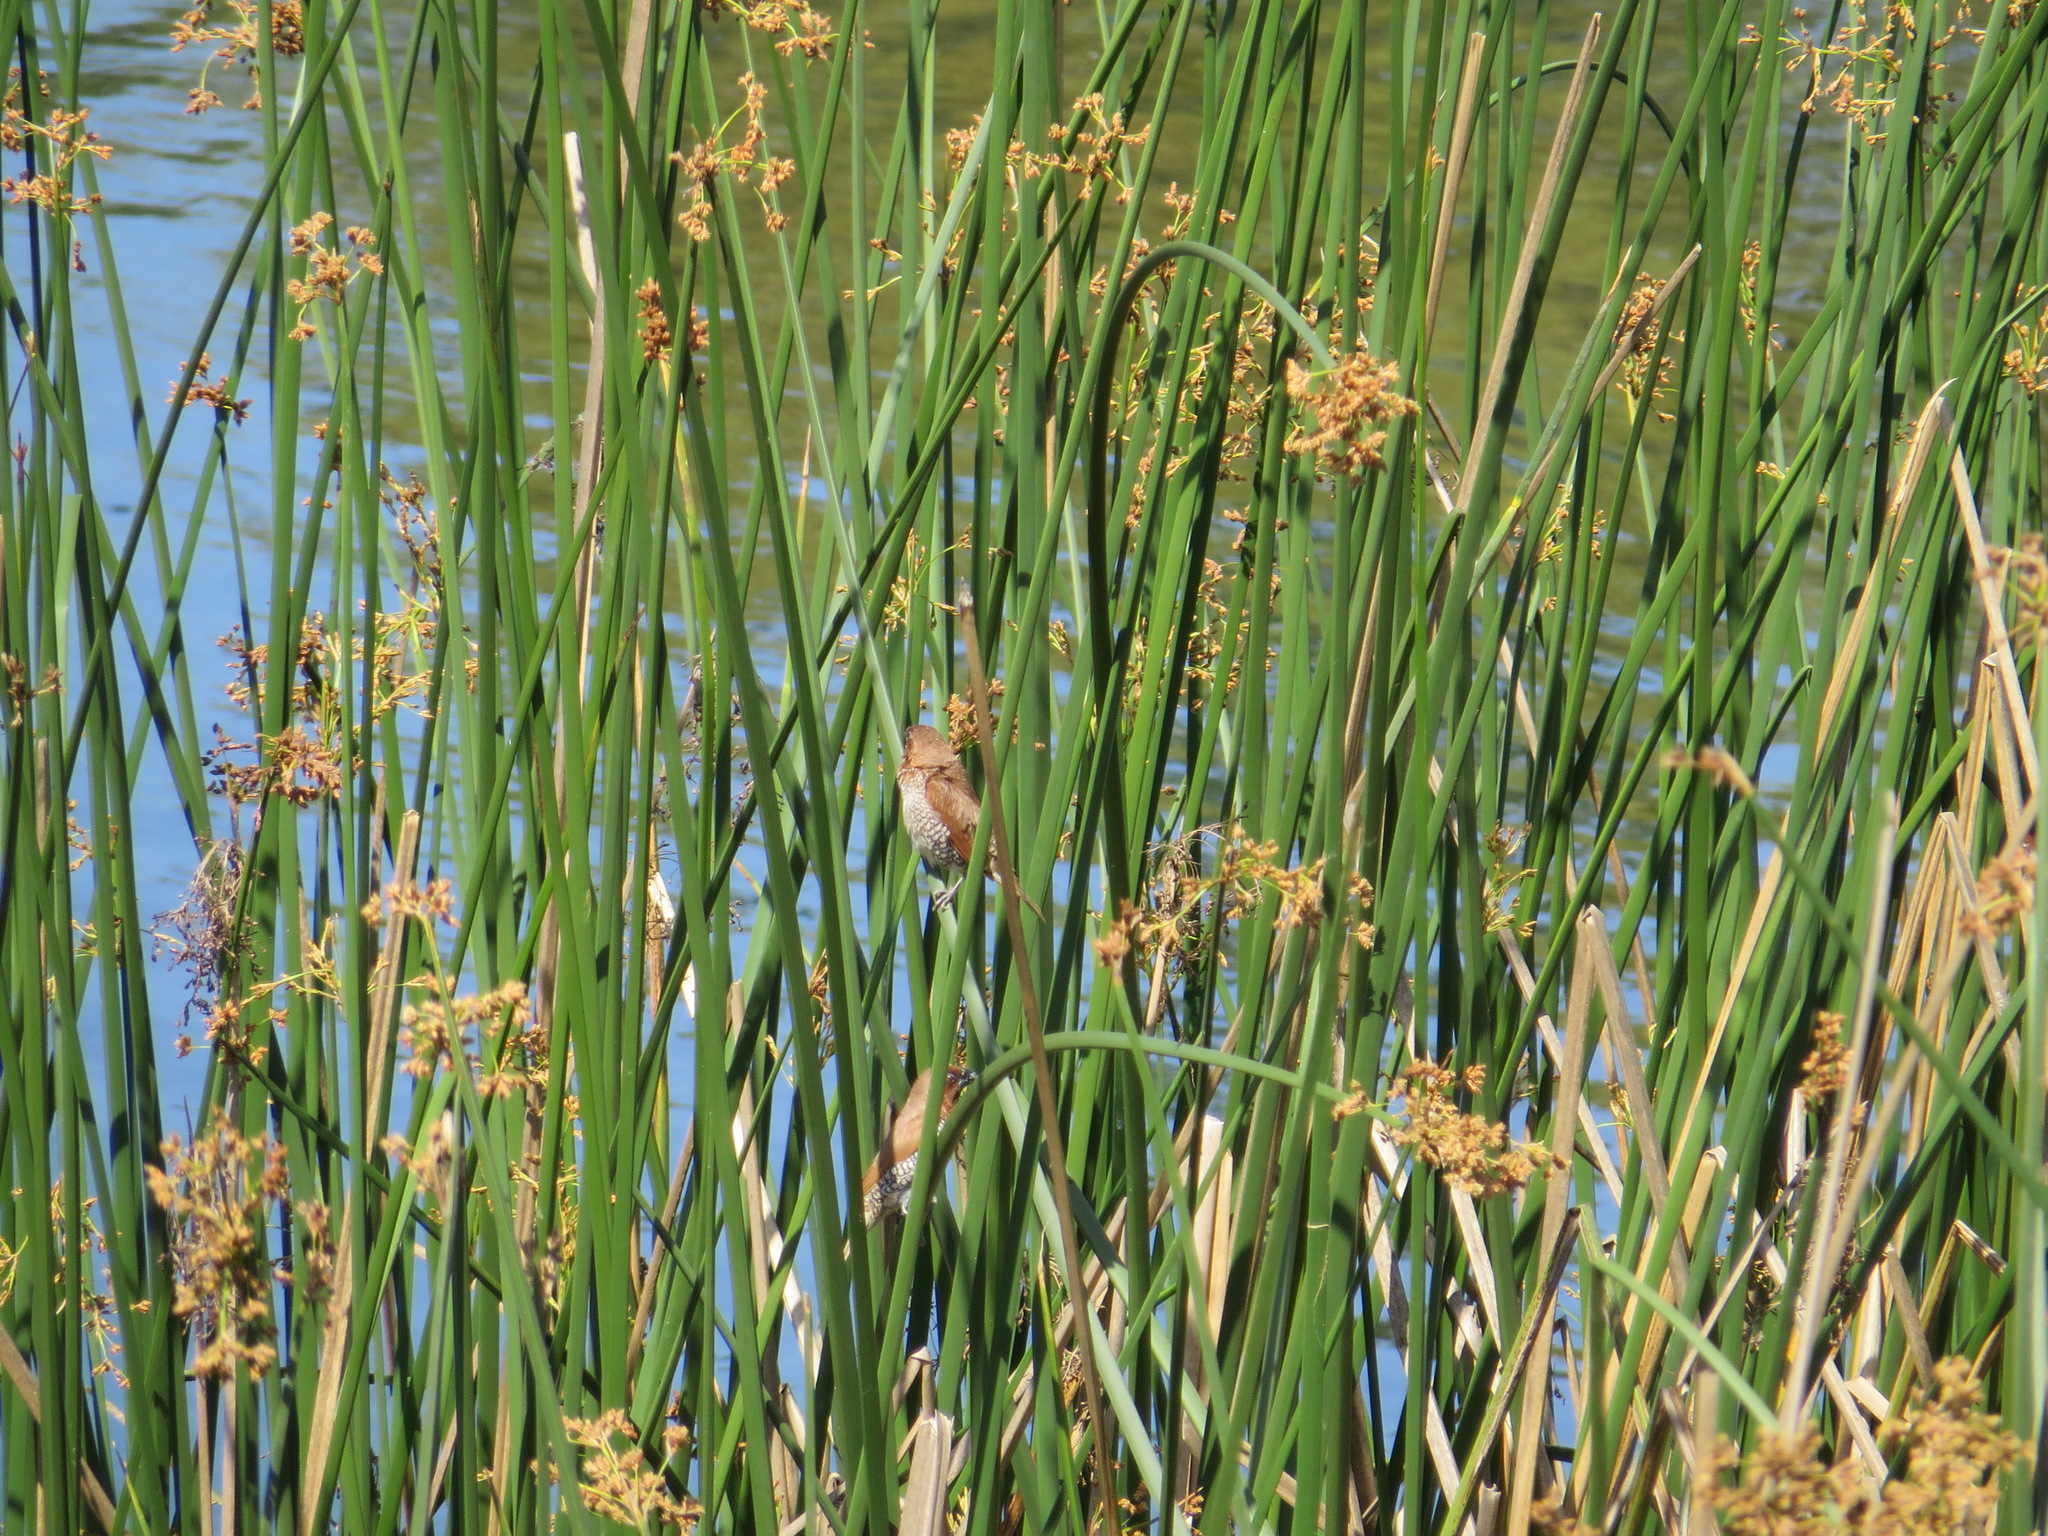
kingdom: Animalia
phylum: Chordata
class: Aves
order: Passeriformes
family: Estrildidae
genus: Lonchura
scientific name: Lonchura punctulata
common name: Scaly-breasted munia
